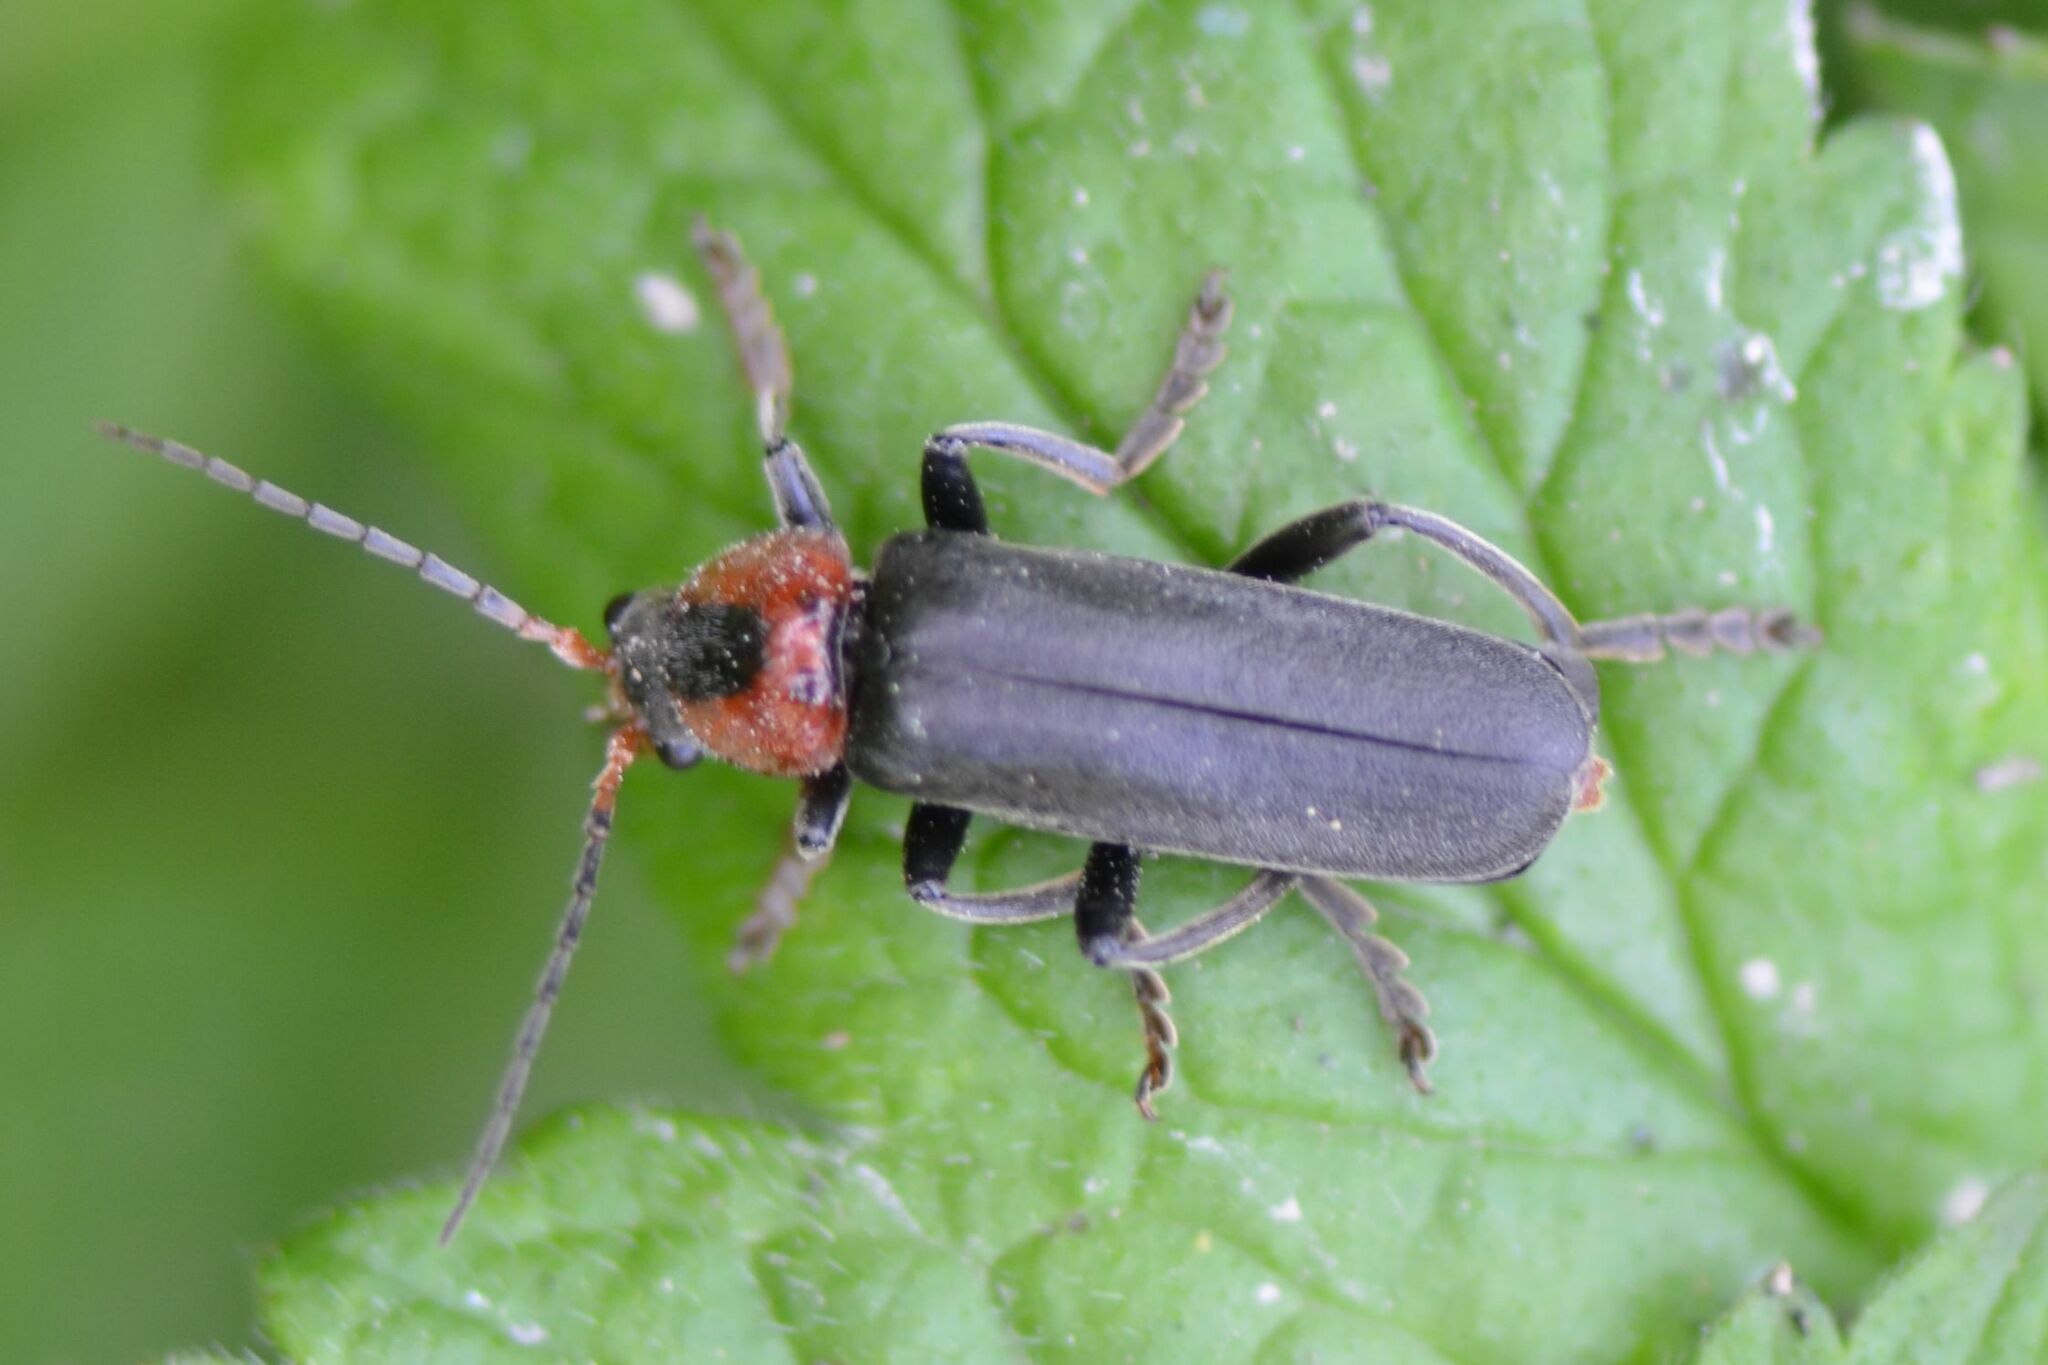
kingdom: Animalia
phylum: Arthropoda
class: Insecta
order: Coleoptera
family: Cantharidae
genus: Cantharis
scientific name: Cantharis fusca
